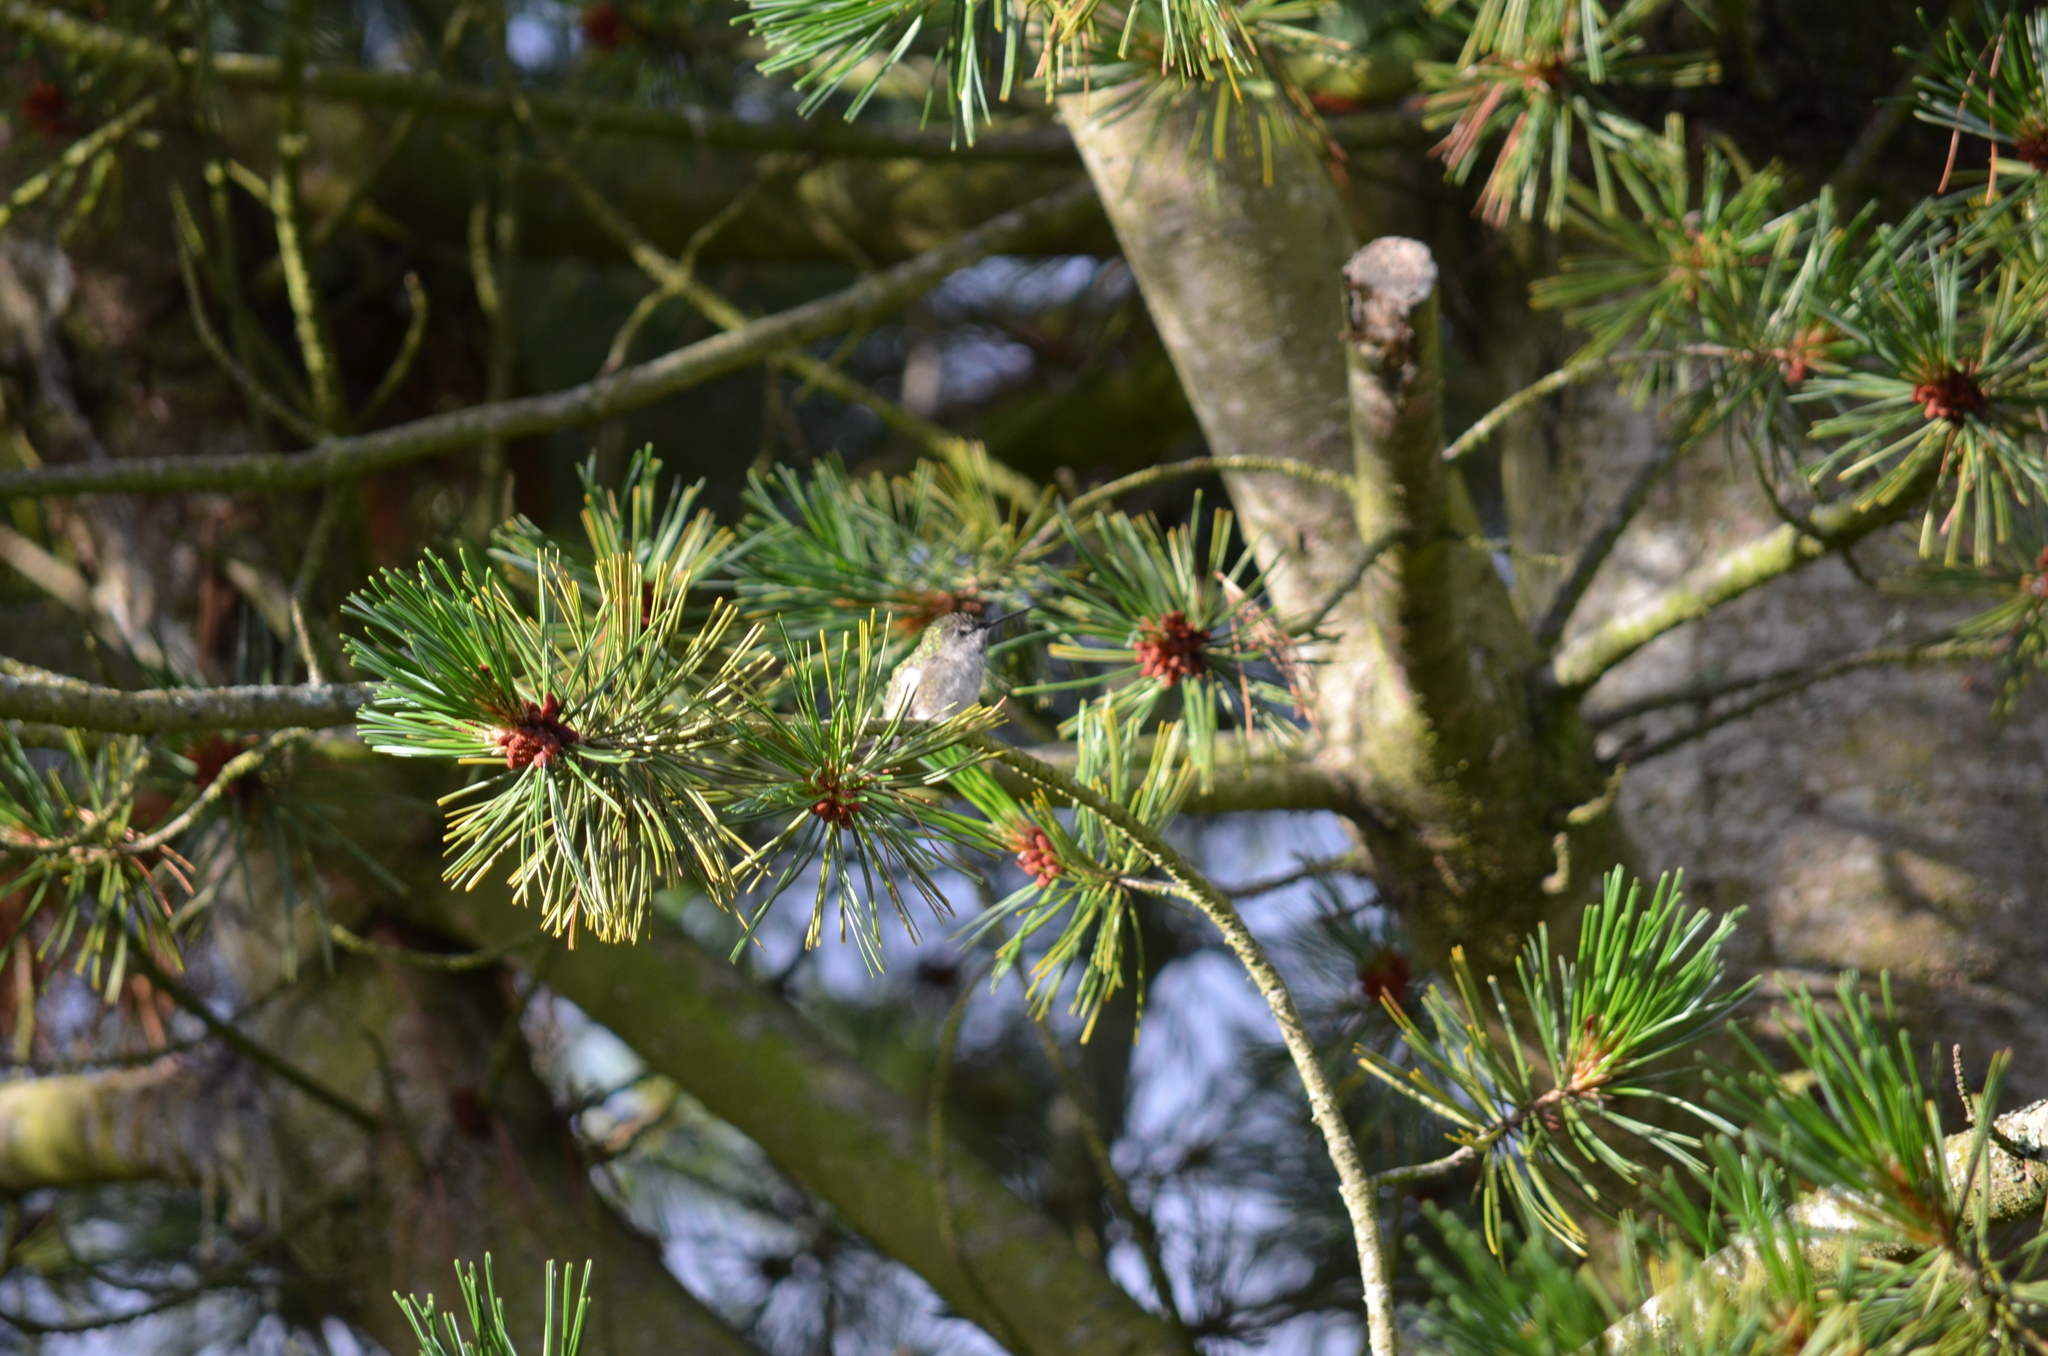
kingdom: Animalia
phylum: Chordata
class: Aves
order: Apodiformes
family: Trochilidae
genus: Calypte
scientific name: Calypte anna
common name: Anna's hummingbird
